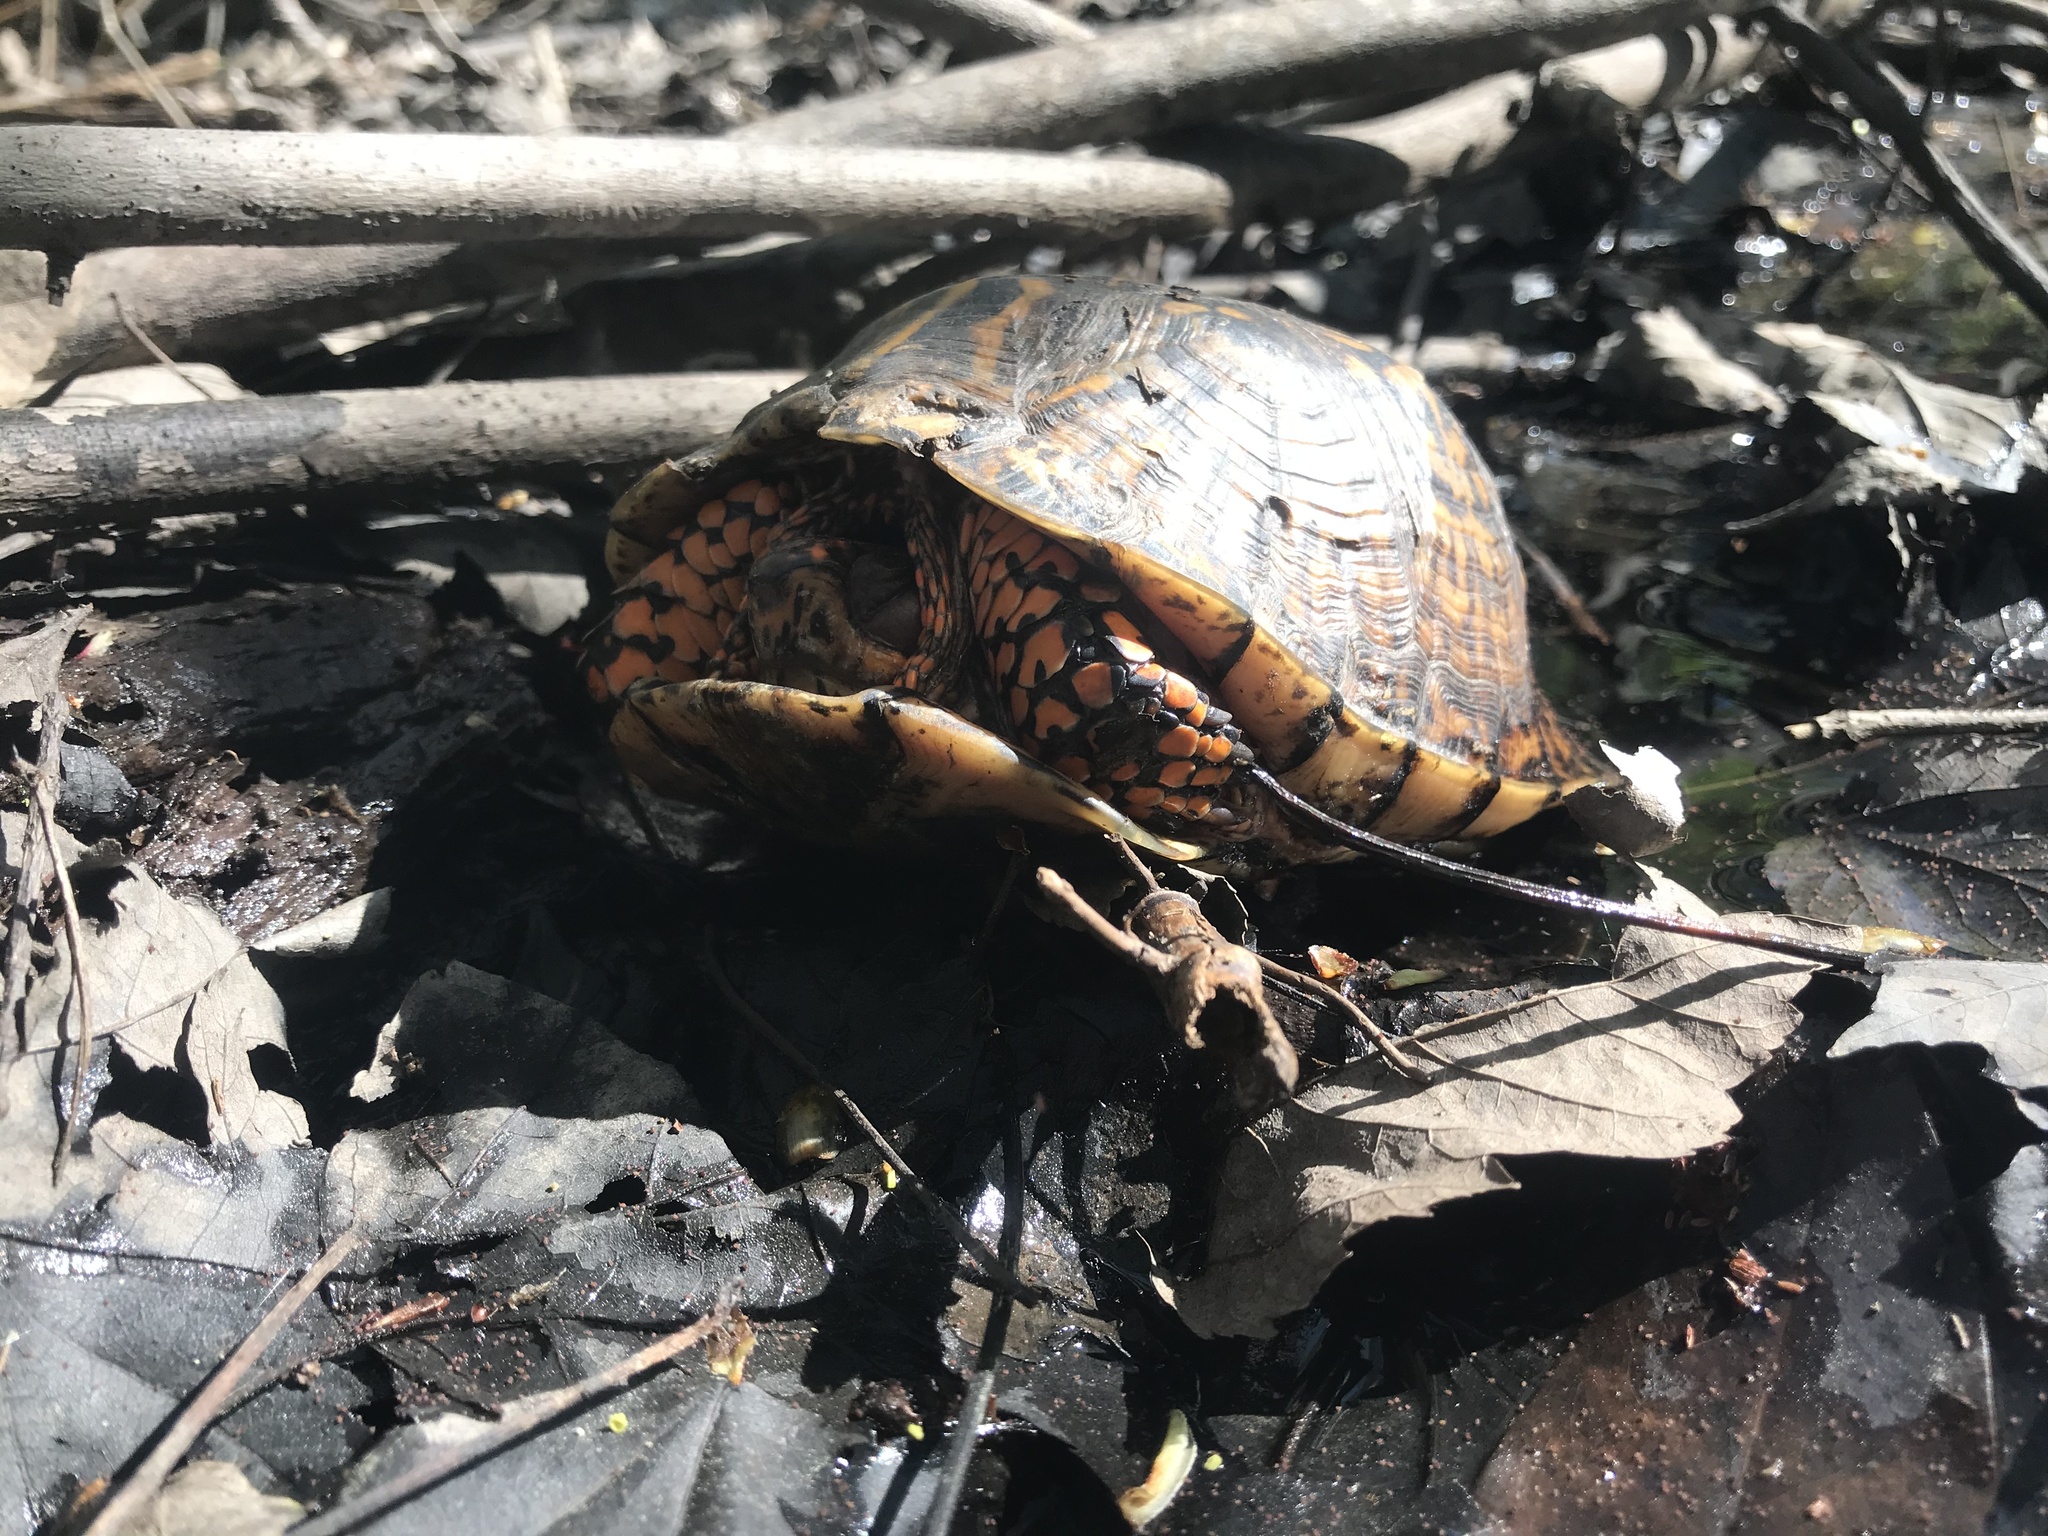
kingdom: Animalia
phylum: Chordata
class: Testudines
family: Emydidae
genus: Terrapene
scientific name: Terrapene carolina
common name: Common box turtle
